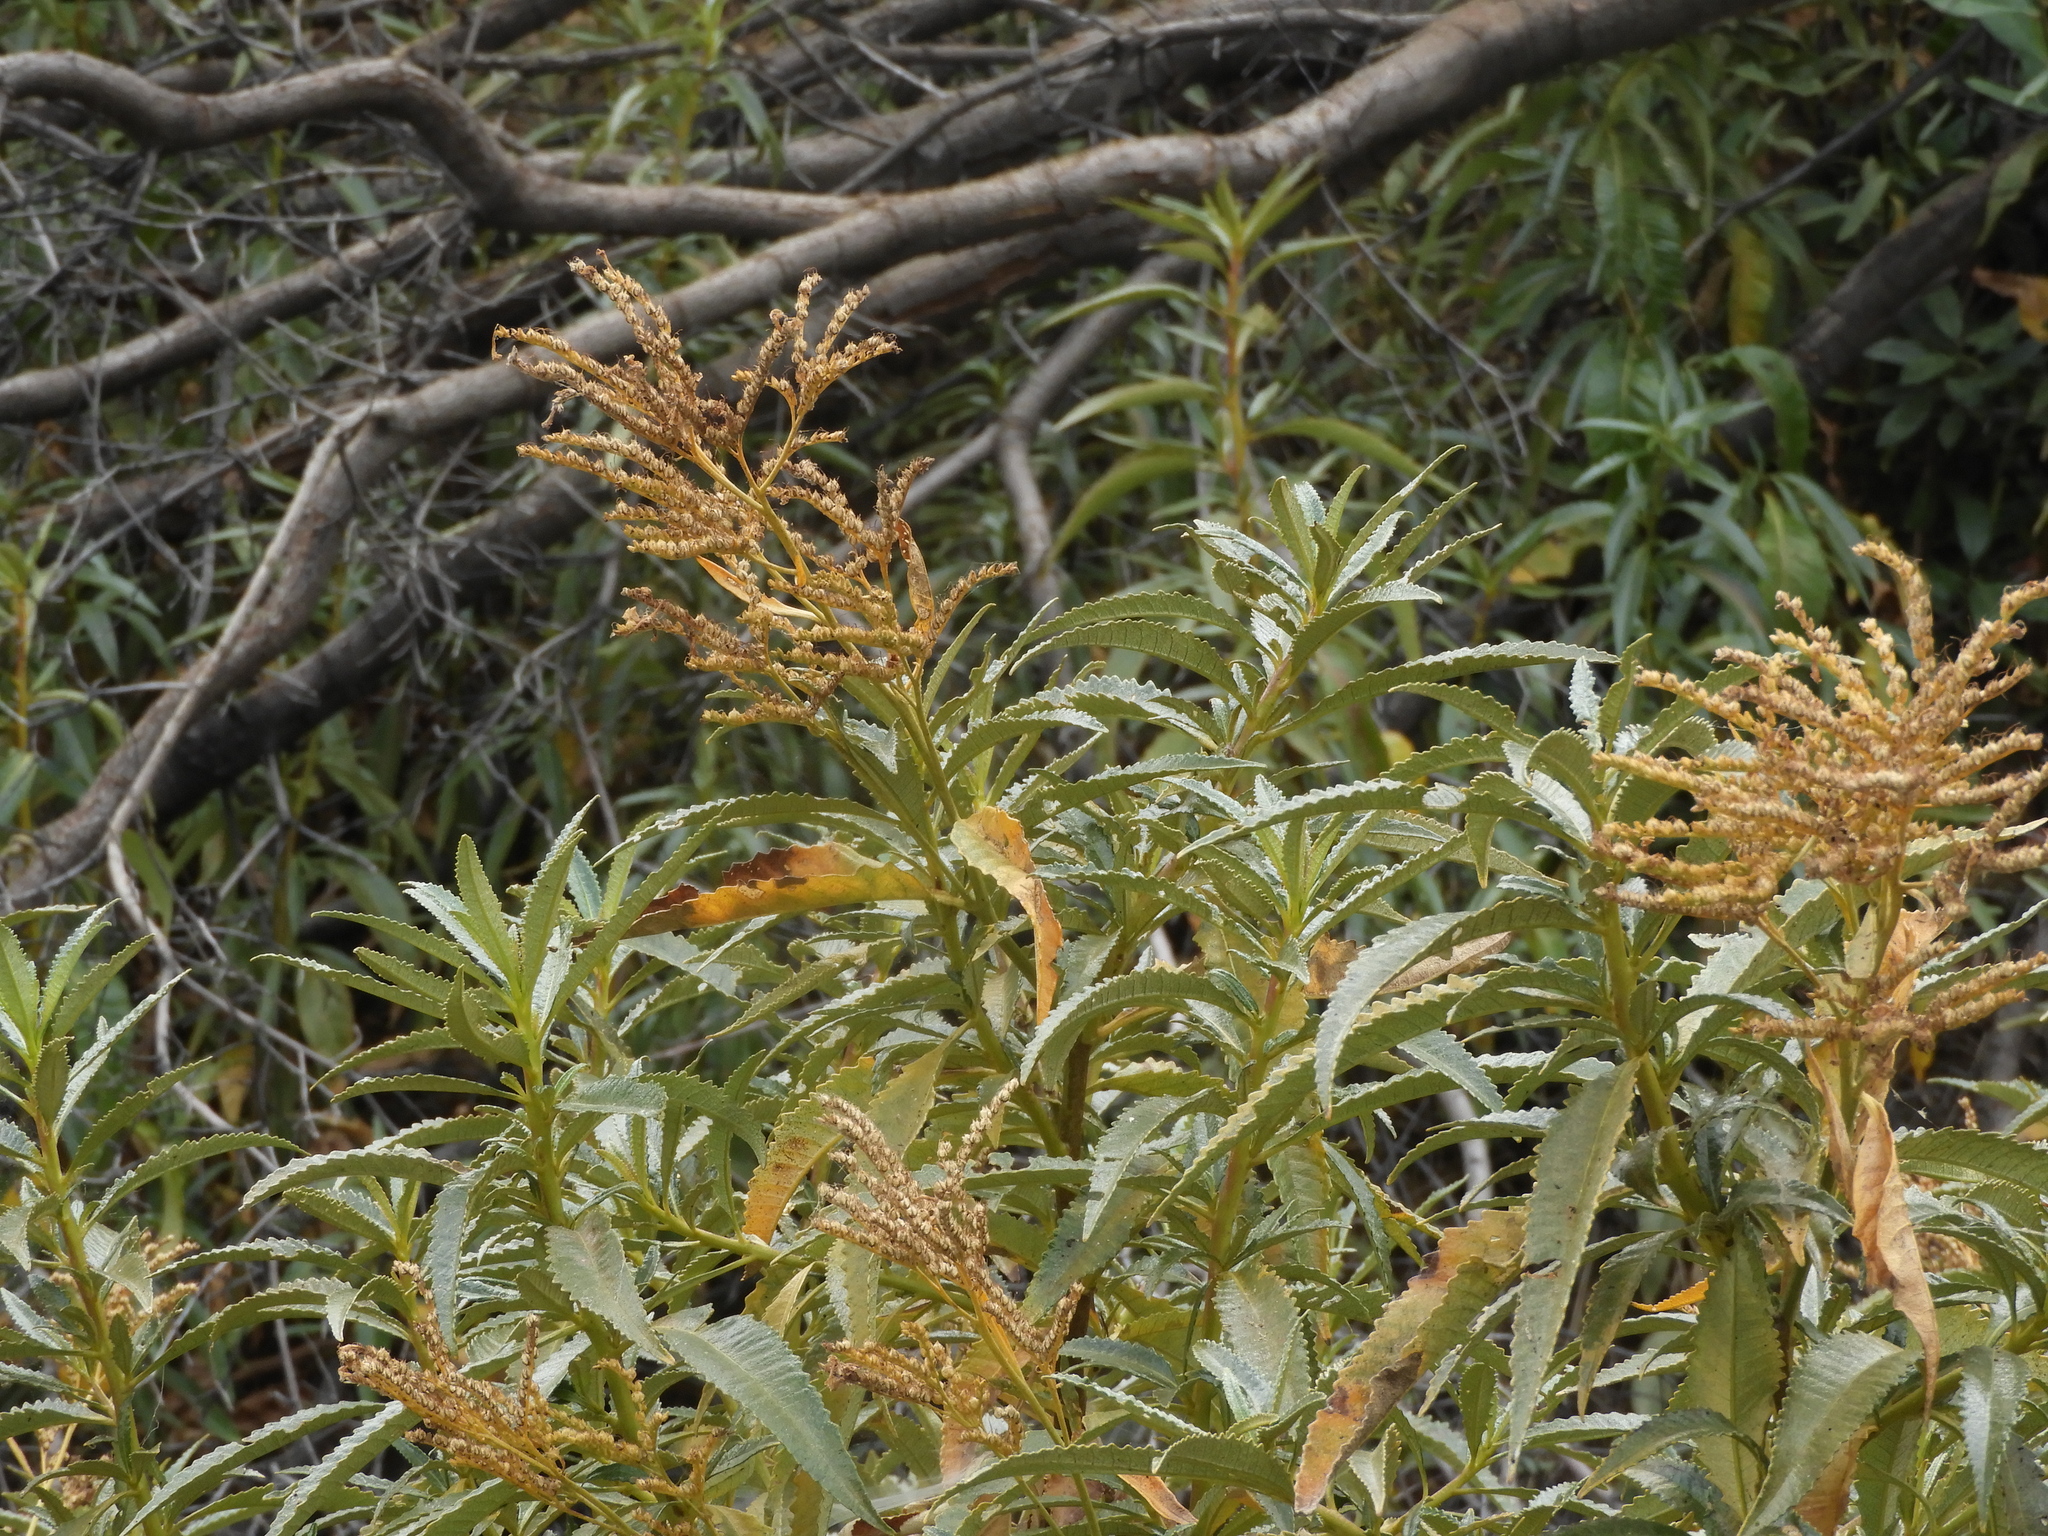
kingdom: Plantae
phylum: Tracheophyta
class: Magnoliopsida
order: Boraginales
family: Namaceae
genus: Eriodictyon
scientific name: Eriodictyon californicum
